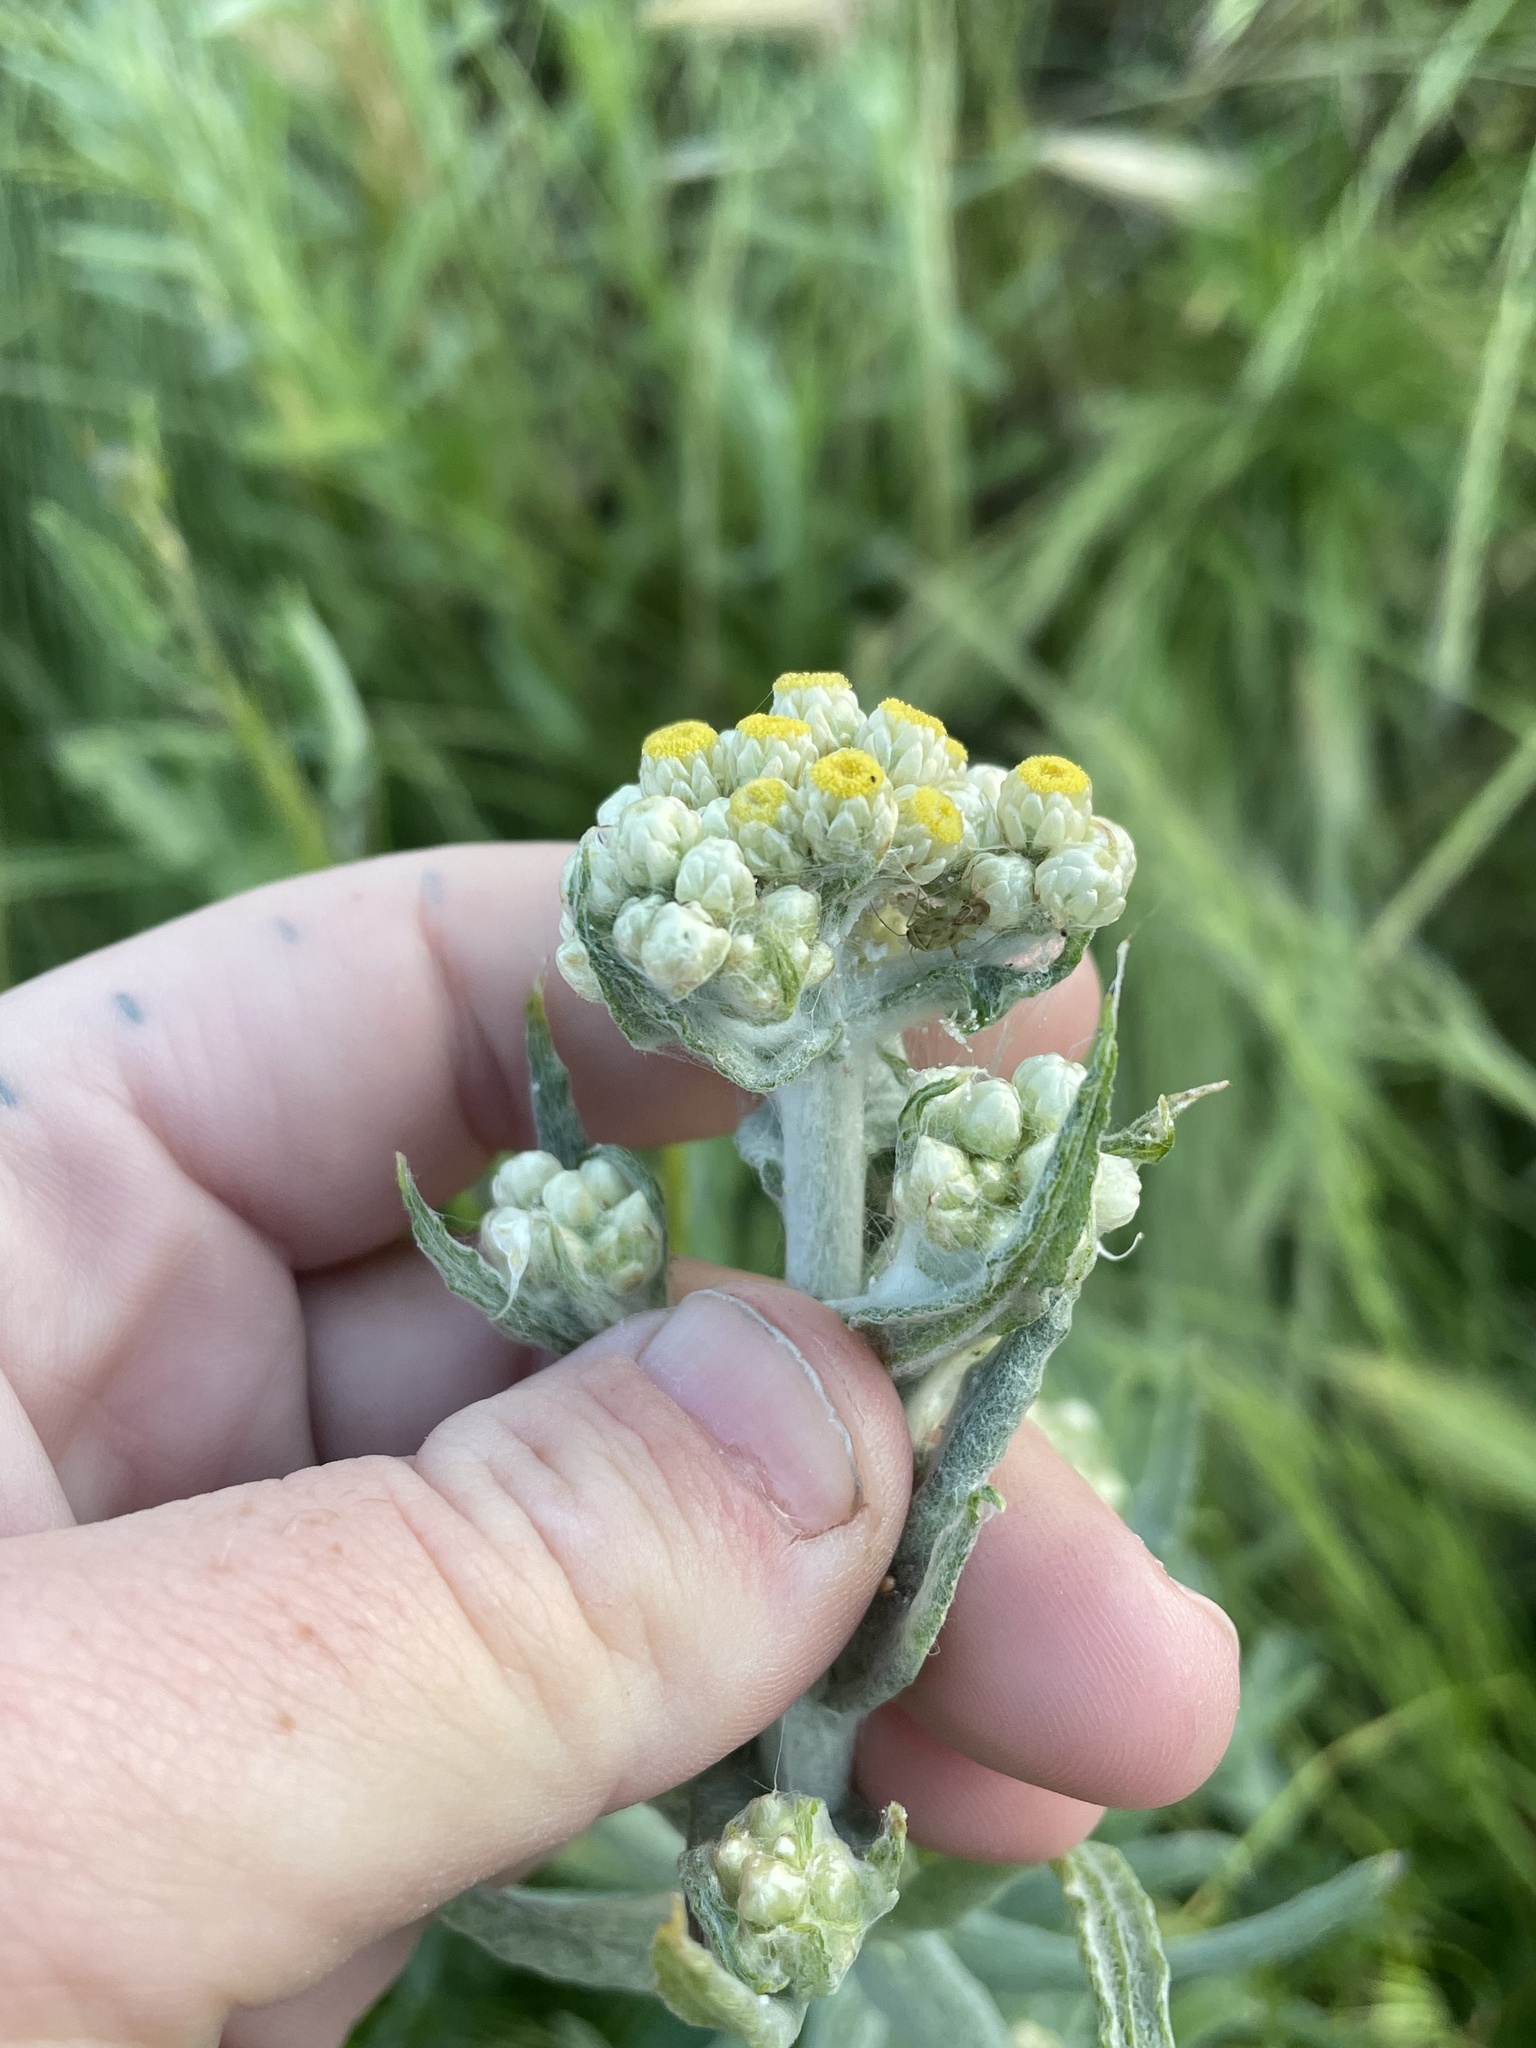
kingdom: Plantae
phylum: Tracheophyta
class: Magnoliopsida
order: Asterales
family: Asteraceae
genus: Pseudognaphalium
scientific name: Pseudognaphalium stramineum
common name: Cotton-batting-plant
